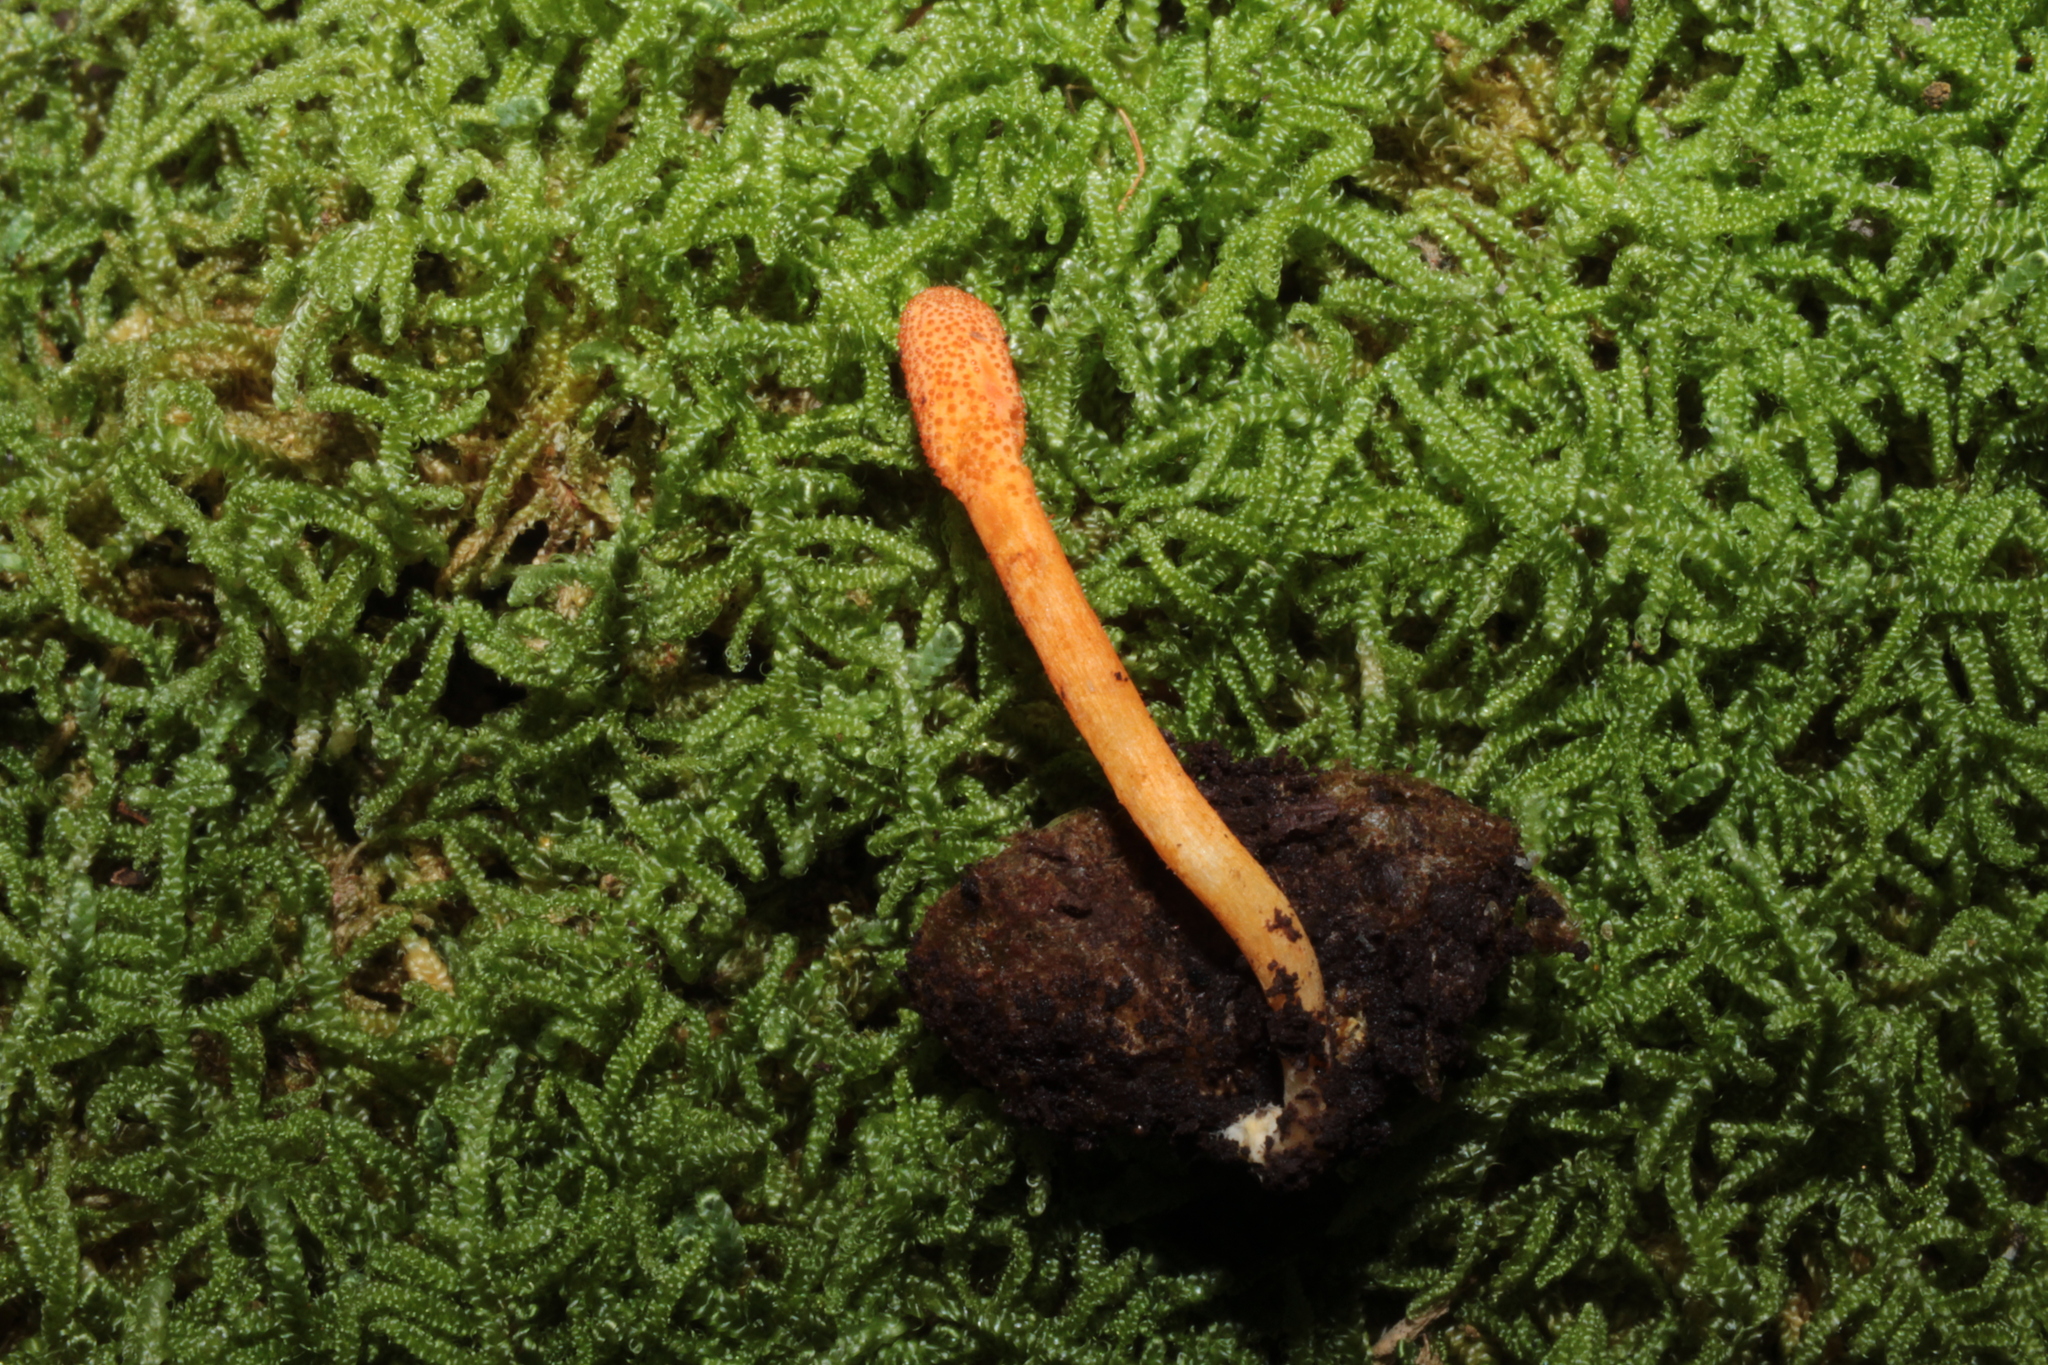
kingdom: Fungi
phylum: Ascomycota
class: Sordariomycetes
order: Hypocreales
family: Cordycipitaceae
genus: Cordyceps
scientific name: Cordyceps militaris
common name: Scarlet caterpillar fungus
